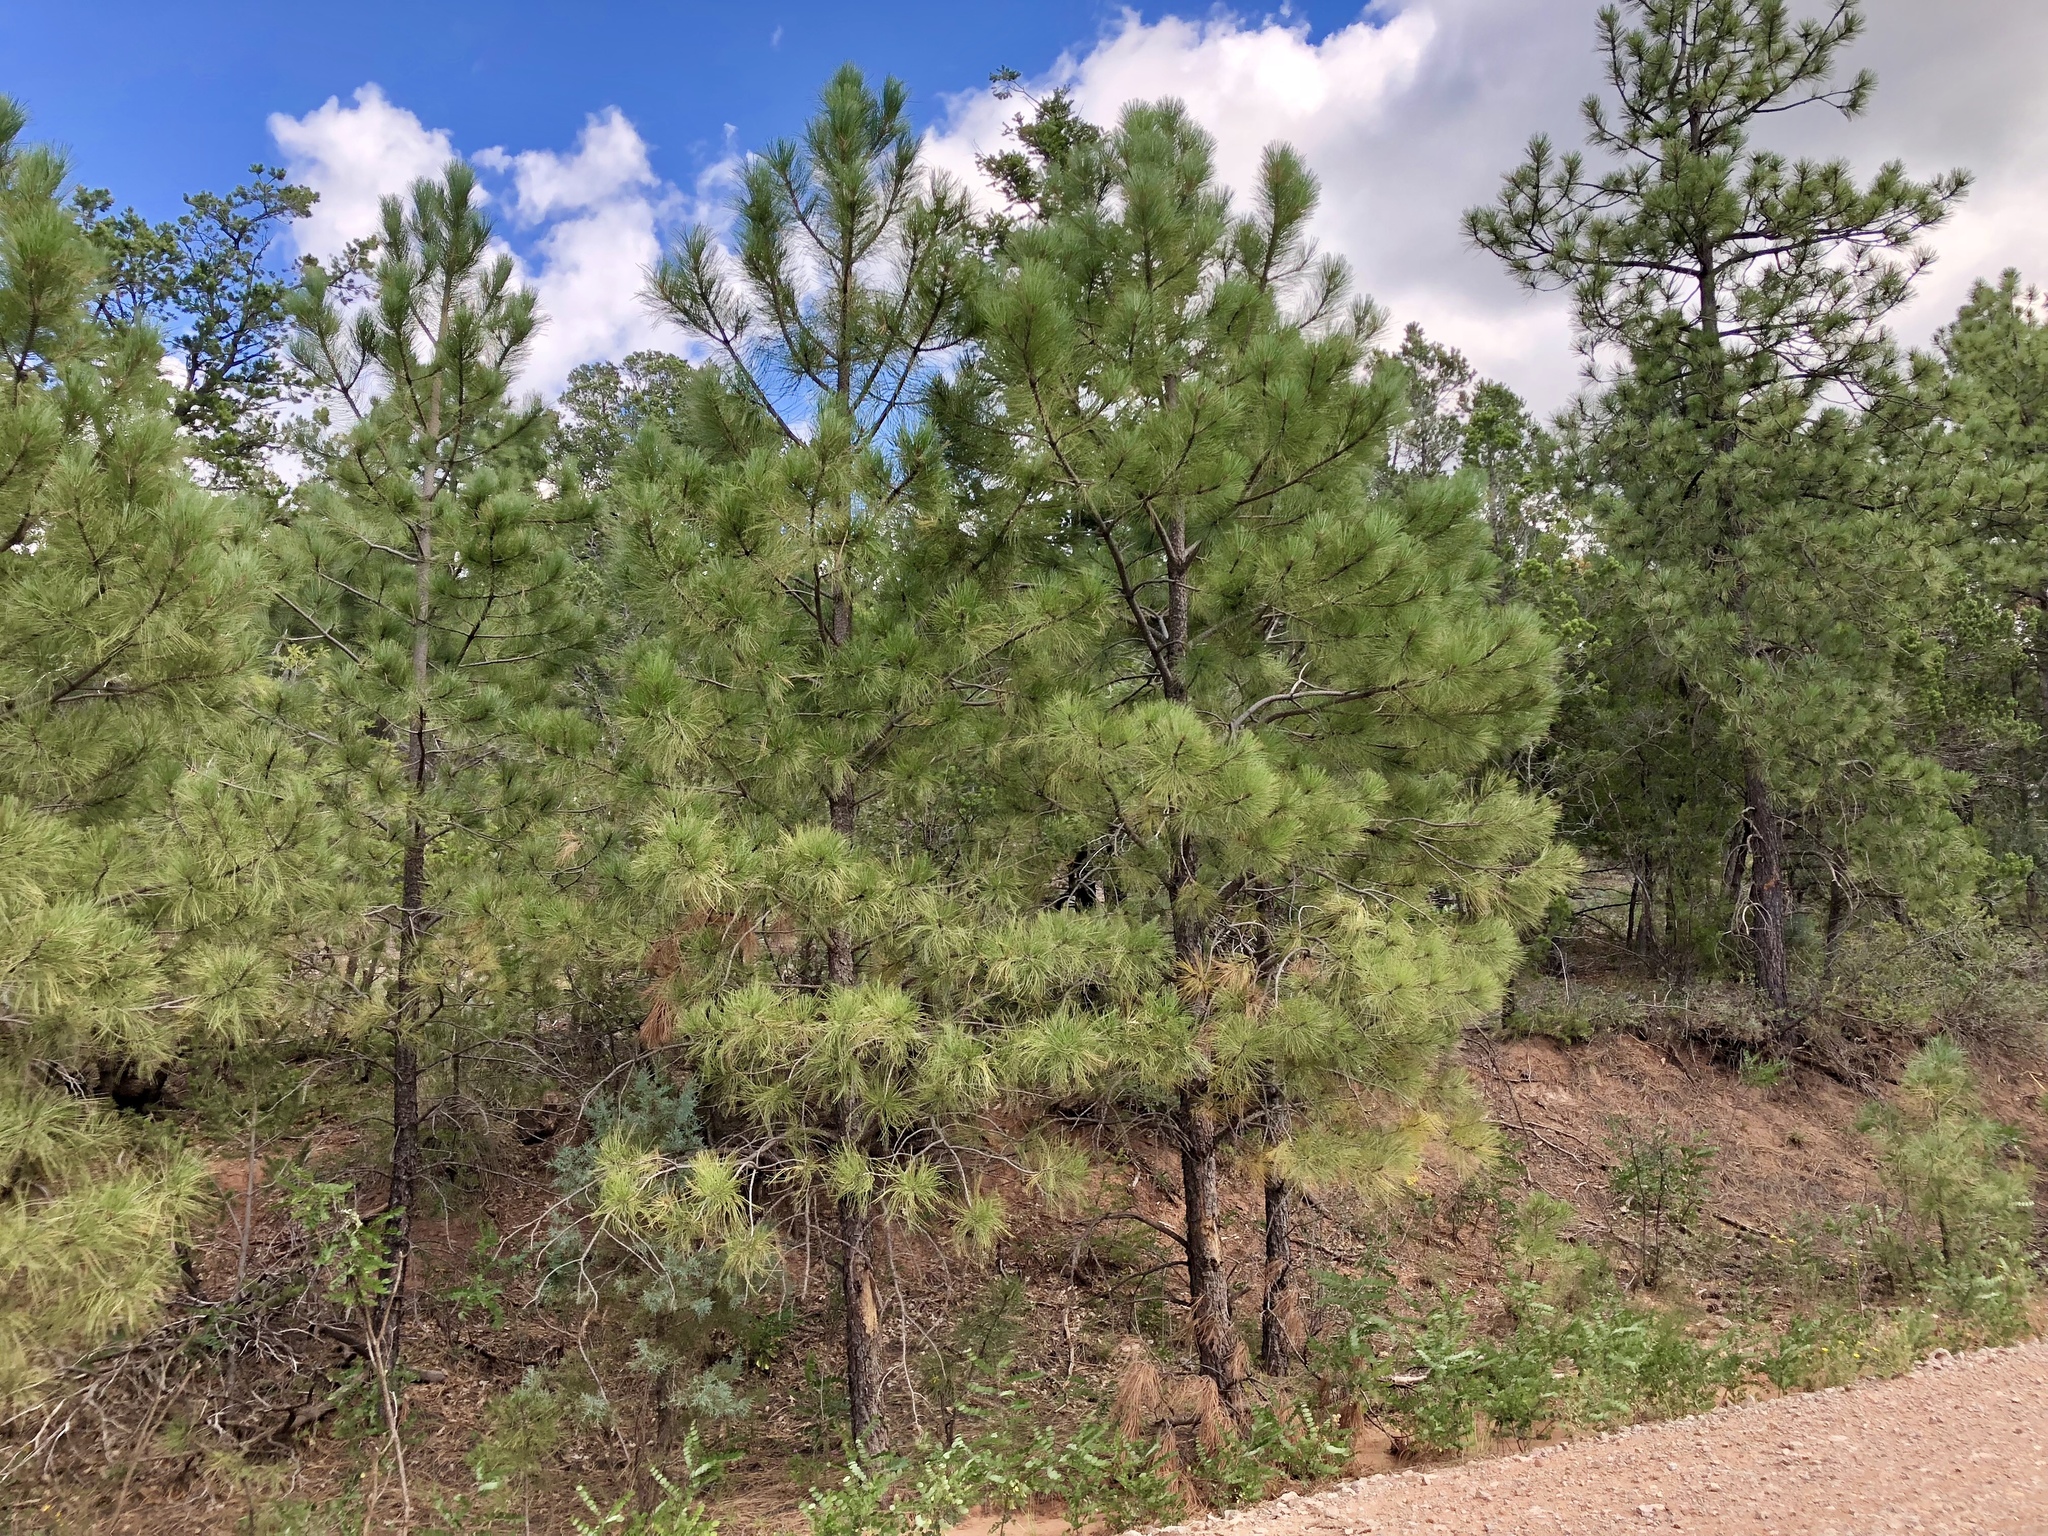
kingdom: Plantae
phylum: Tracheophyta
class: Pinopsida
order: Pinales
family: Pinaceae
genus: Pinus
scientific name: Pinus ponderosa
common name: Western yellow-pine
